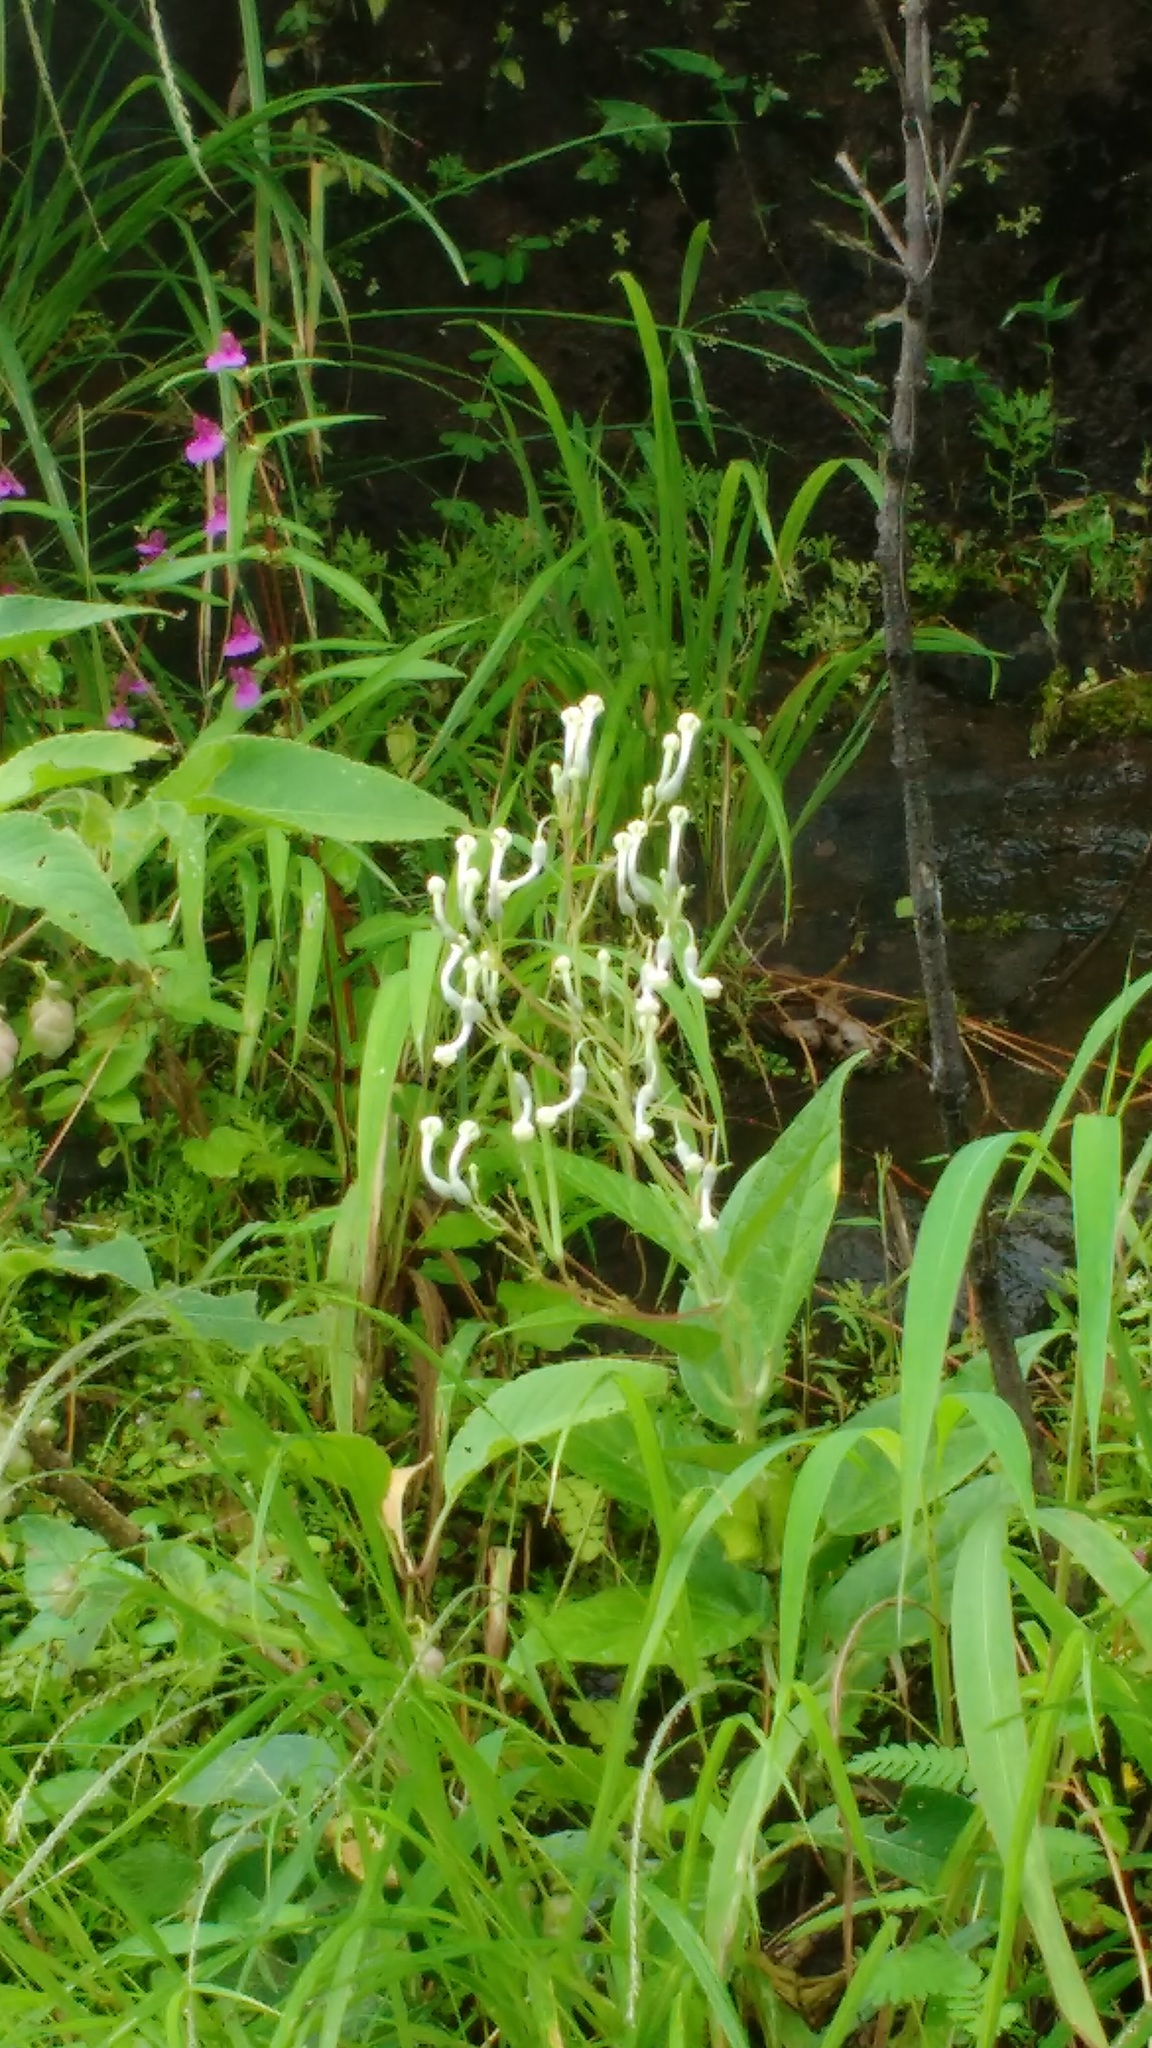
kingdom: Plantae
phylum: Tracheophyta
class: Magnoliopsida
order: Gentianales
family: Apocynaceae
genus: Ceropegia
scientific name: Ceropegia lawii
